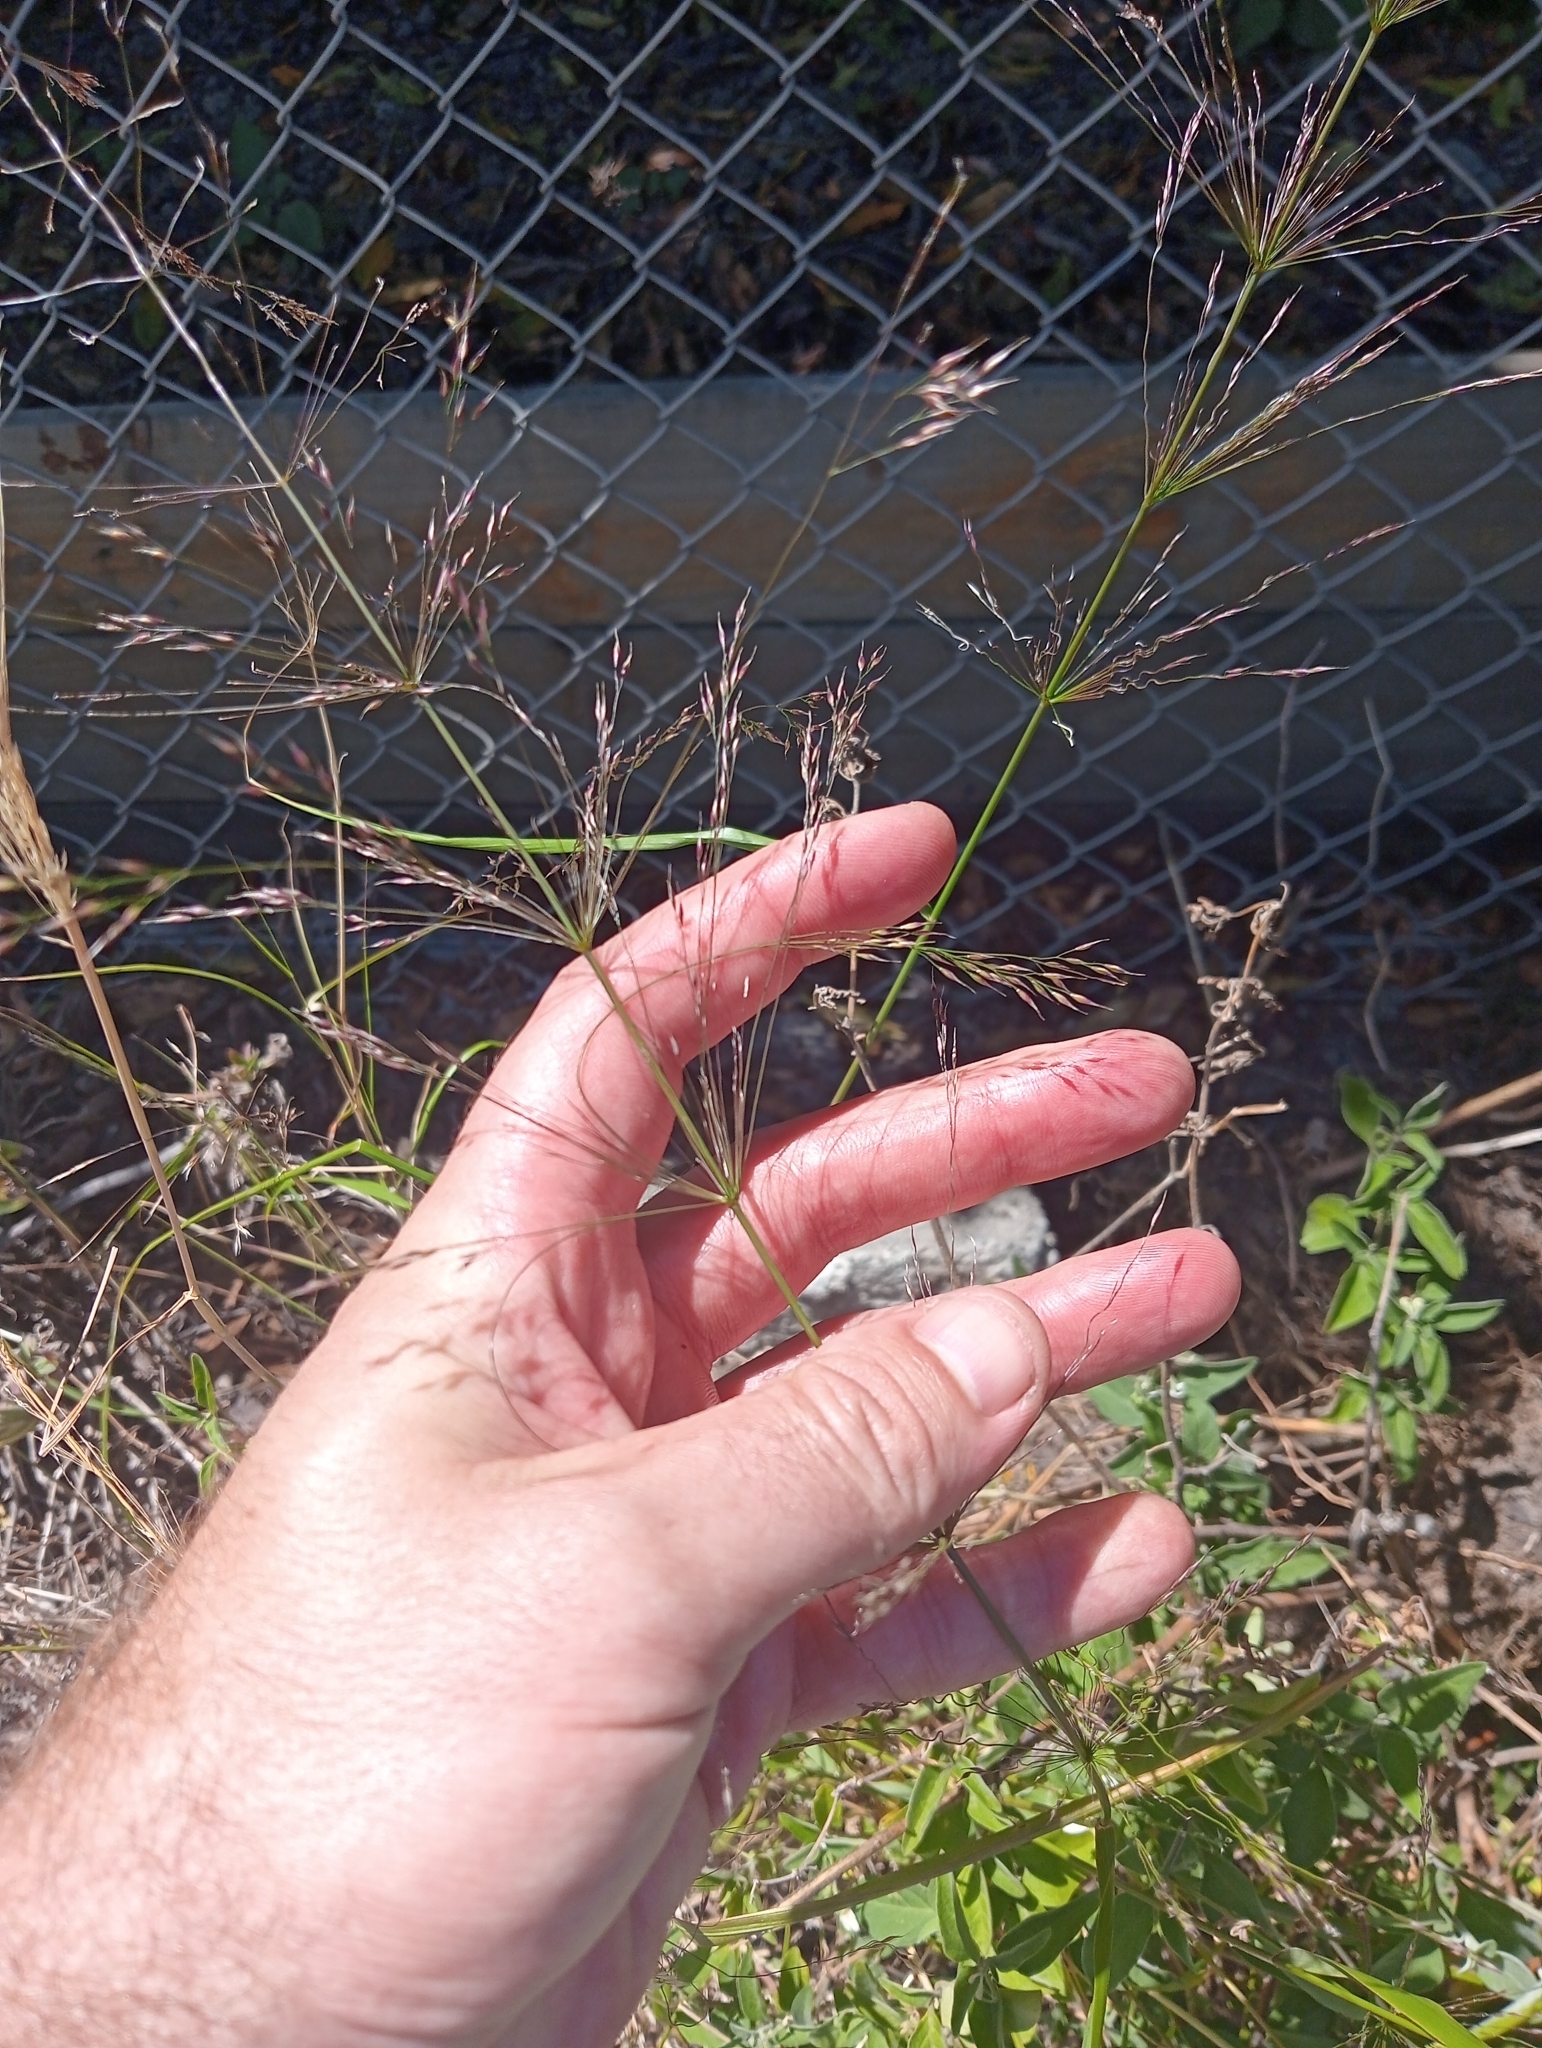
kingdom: Plantae
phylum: Tracheophyta
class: Liliopsida
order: Poales
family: Poaceae
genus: Oloptum
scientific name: Oloptum miliaceum
